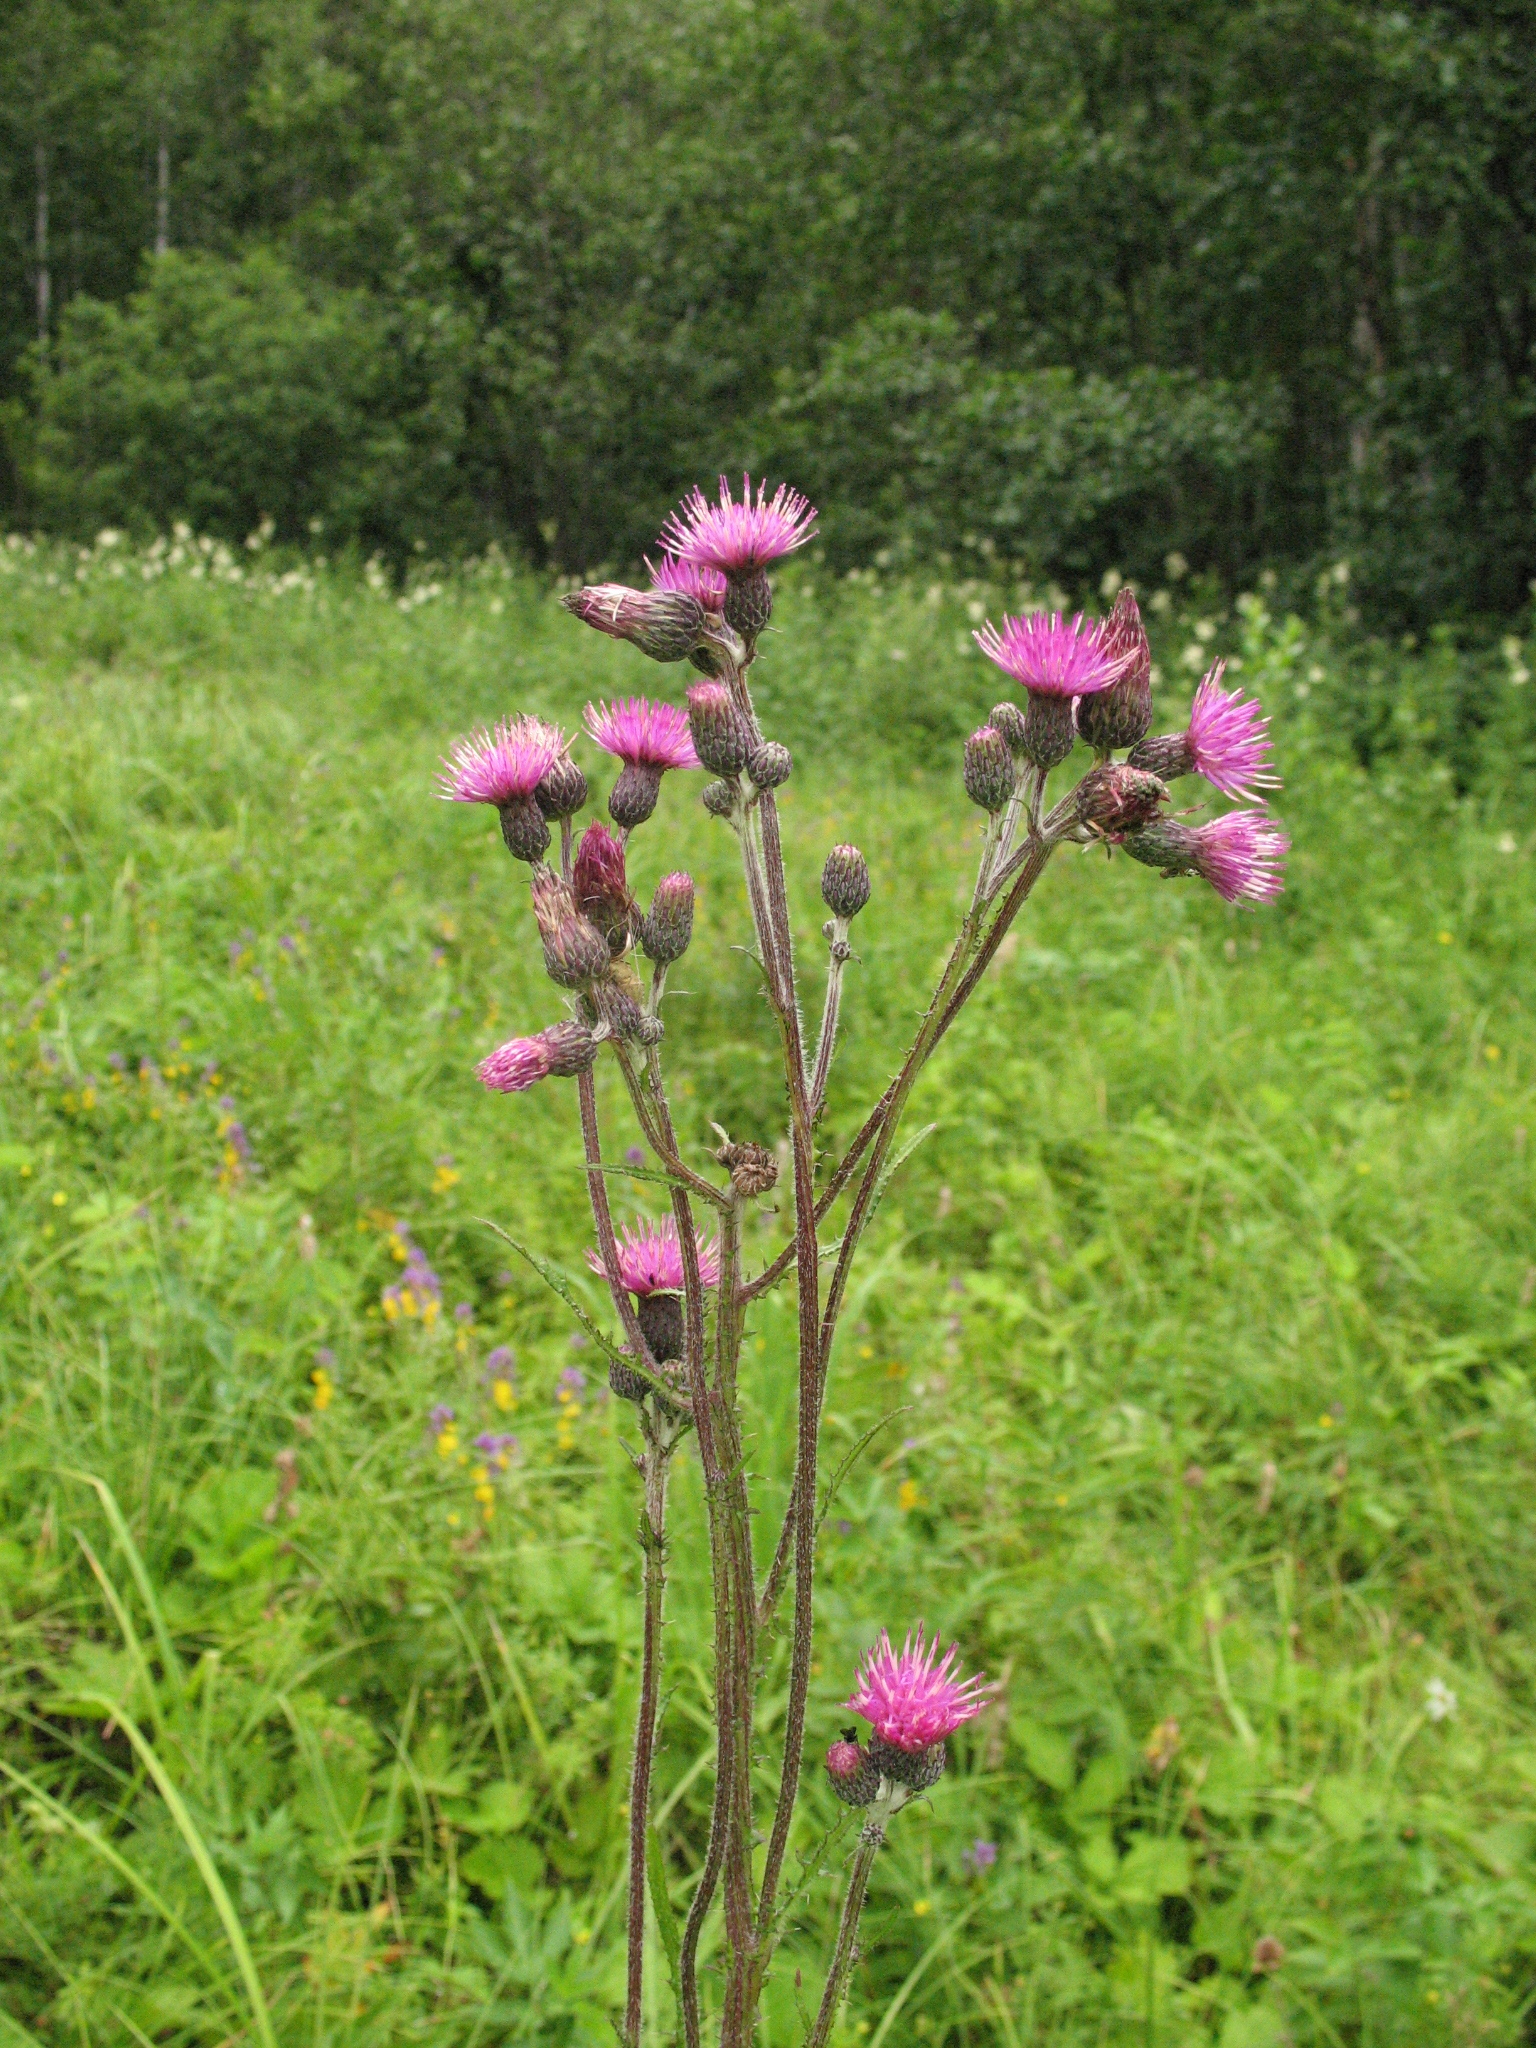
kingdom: Plantae
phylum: Tracheophyta
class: Magnoliopsida
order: Asterales
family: Asteraceae
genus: Cirsium
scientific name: Cirsium palustre
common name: Marsh thistle
